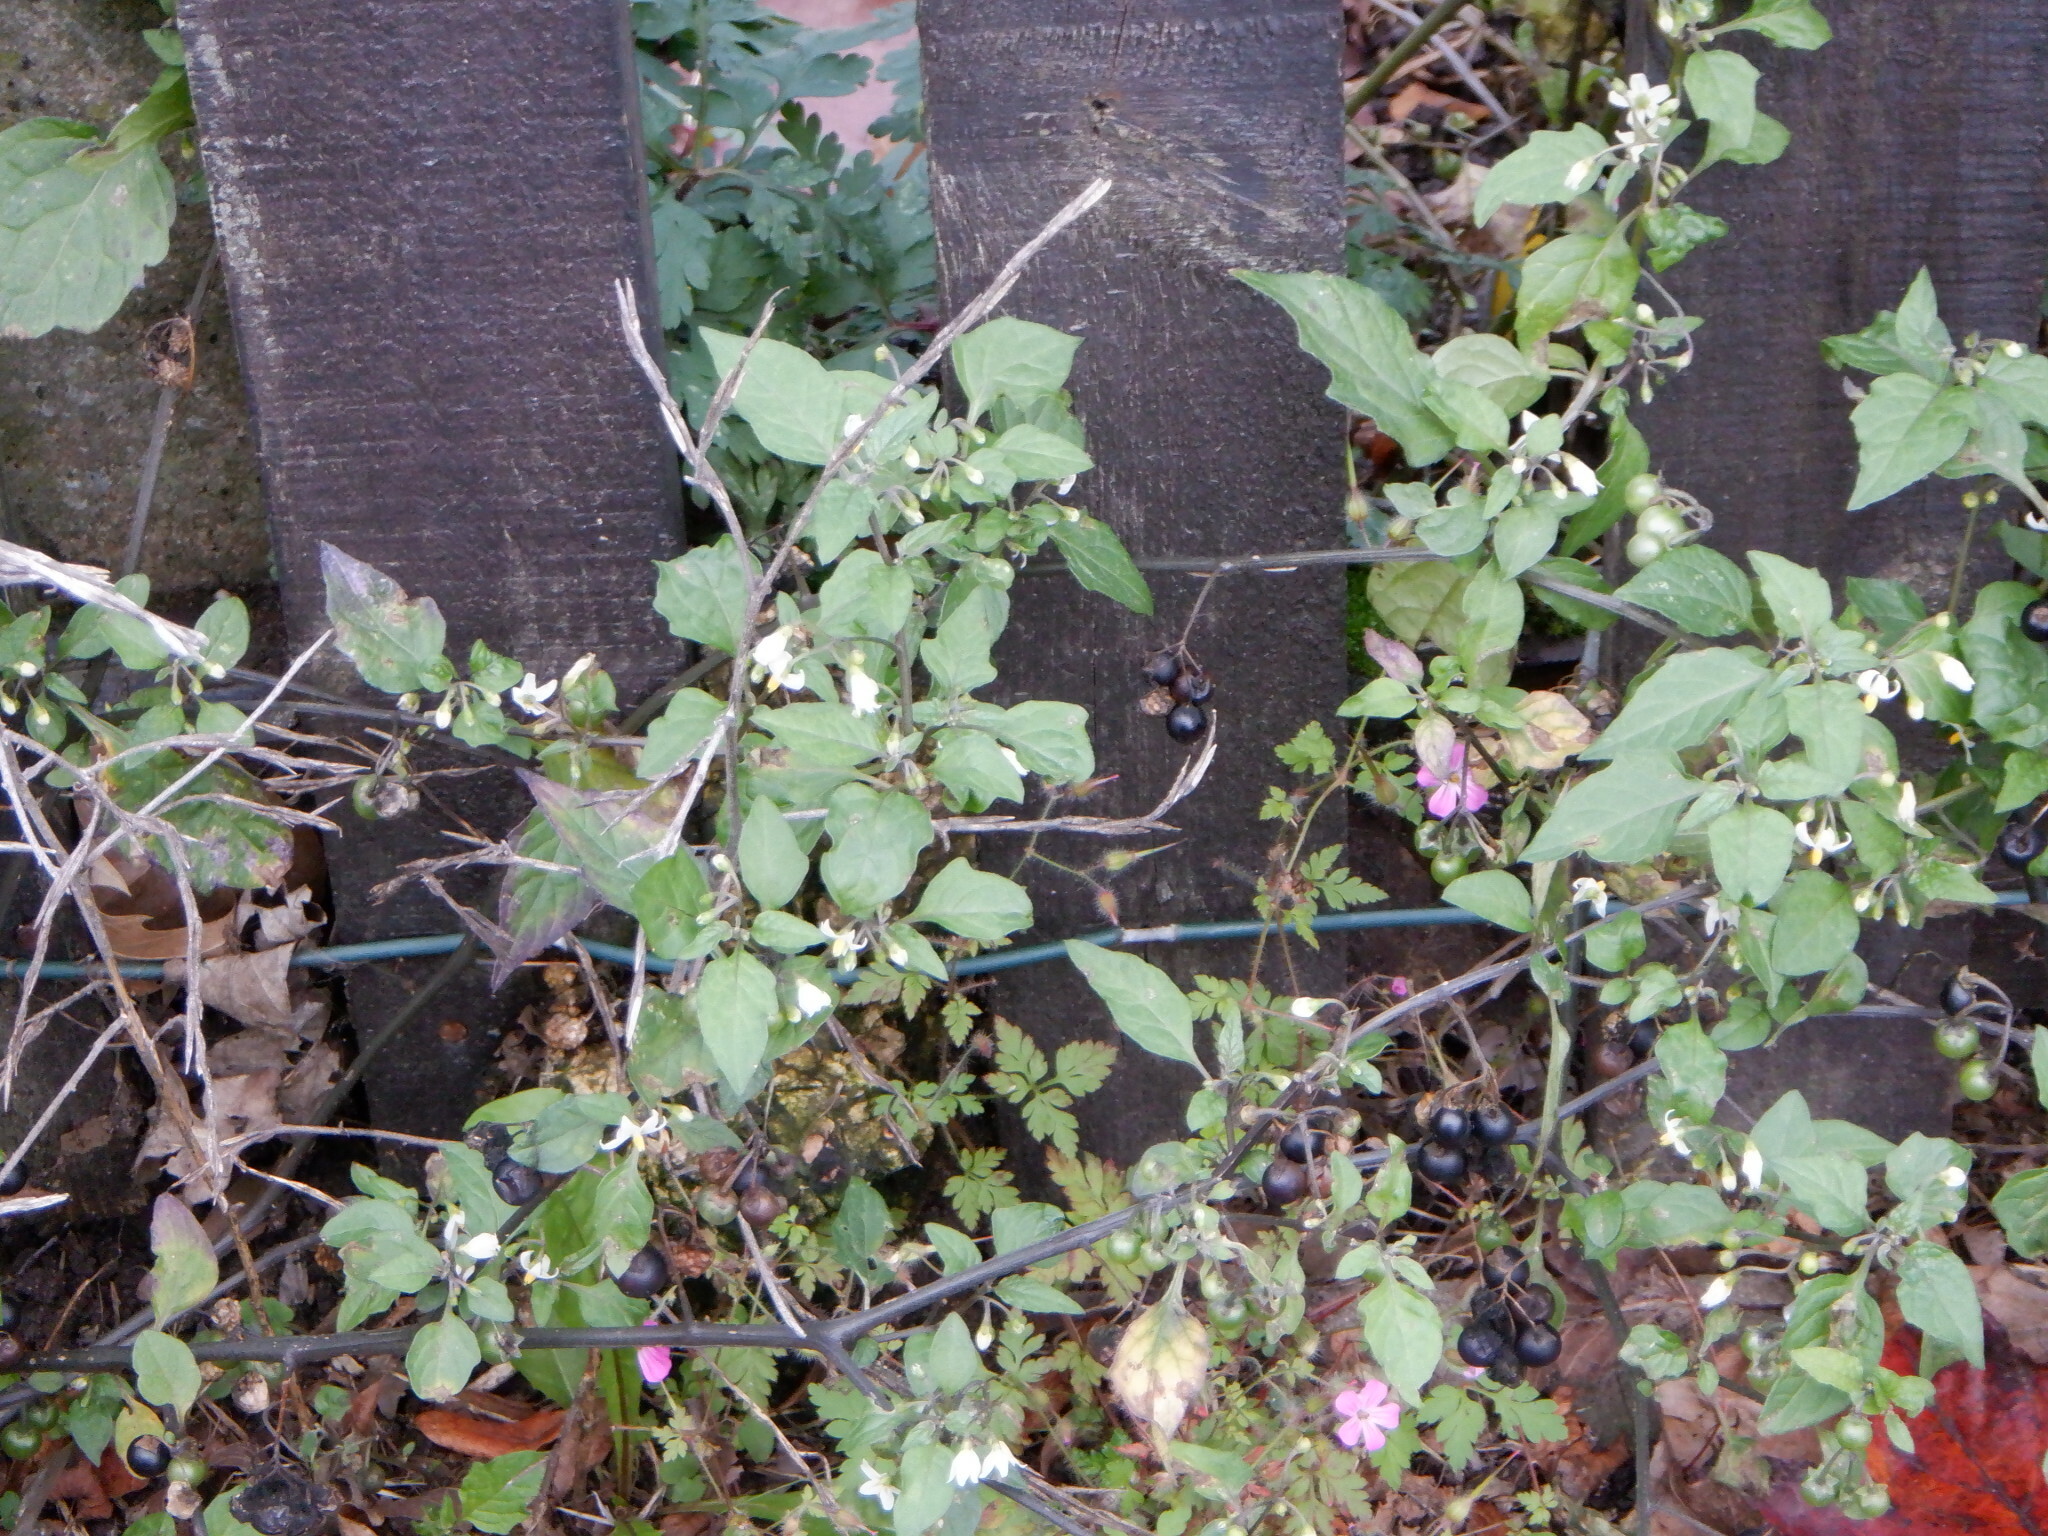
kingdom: Plantae
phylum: Tracheophyta
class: Magnoliopsida
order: Solanales
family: Solanaceae
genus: Solanum
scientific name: Solanum nigrum
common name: Black nightshade
